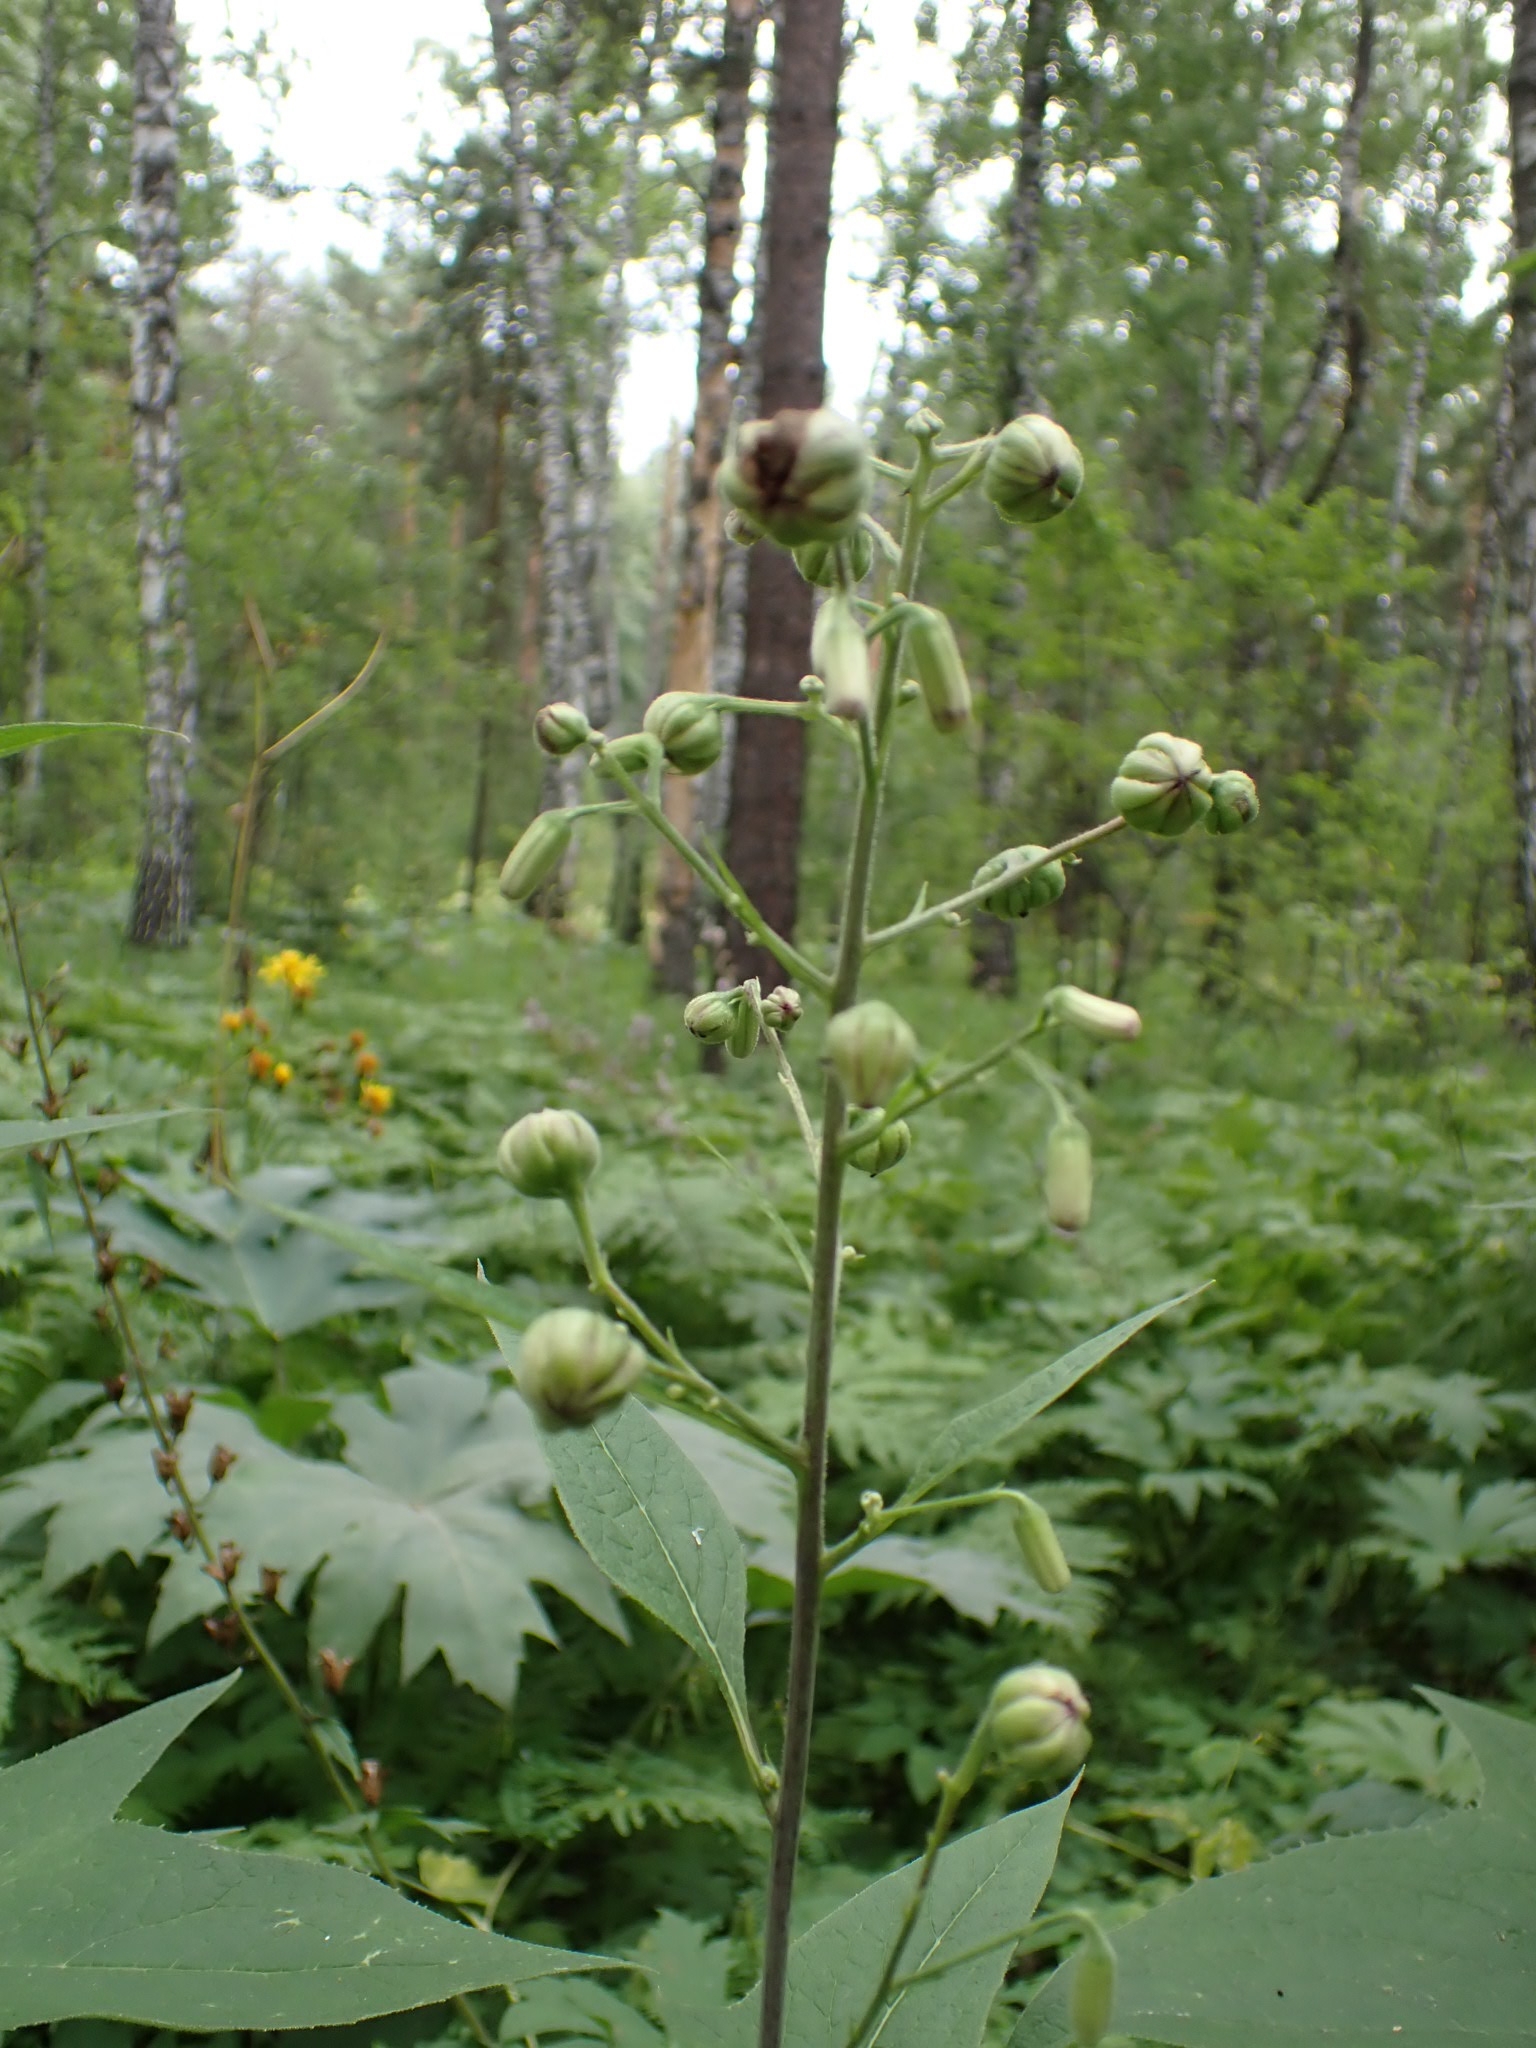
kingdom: Plantae
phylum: Tracheophyta
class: Magnoliopsida
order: Asterales
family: Asteraceae
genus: Parasenecio
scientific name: Parasenecio hastatus
